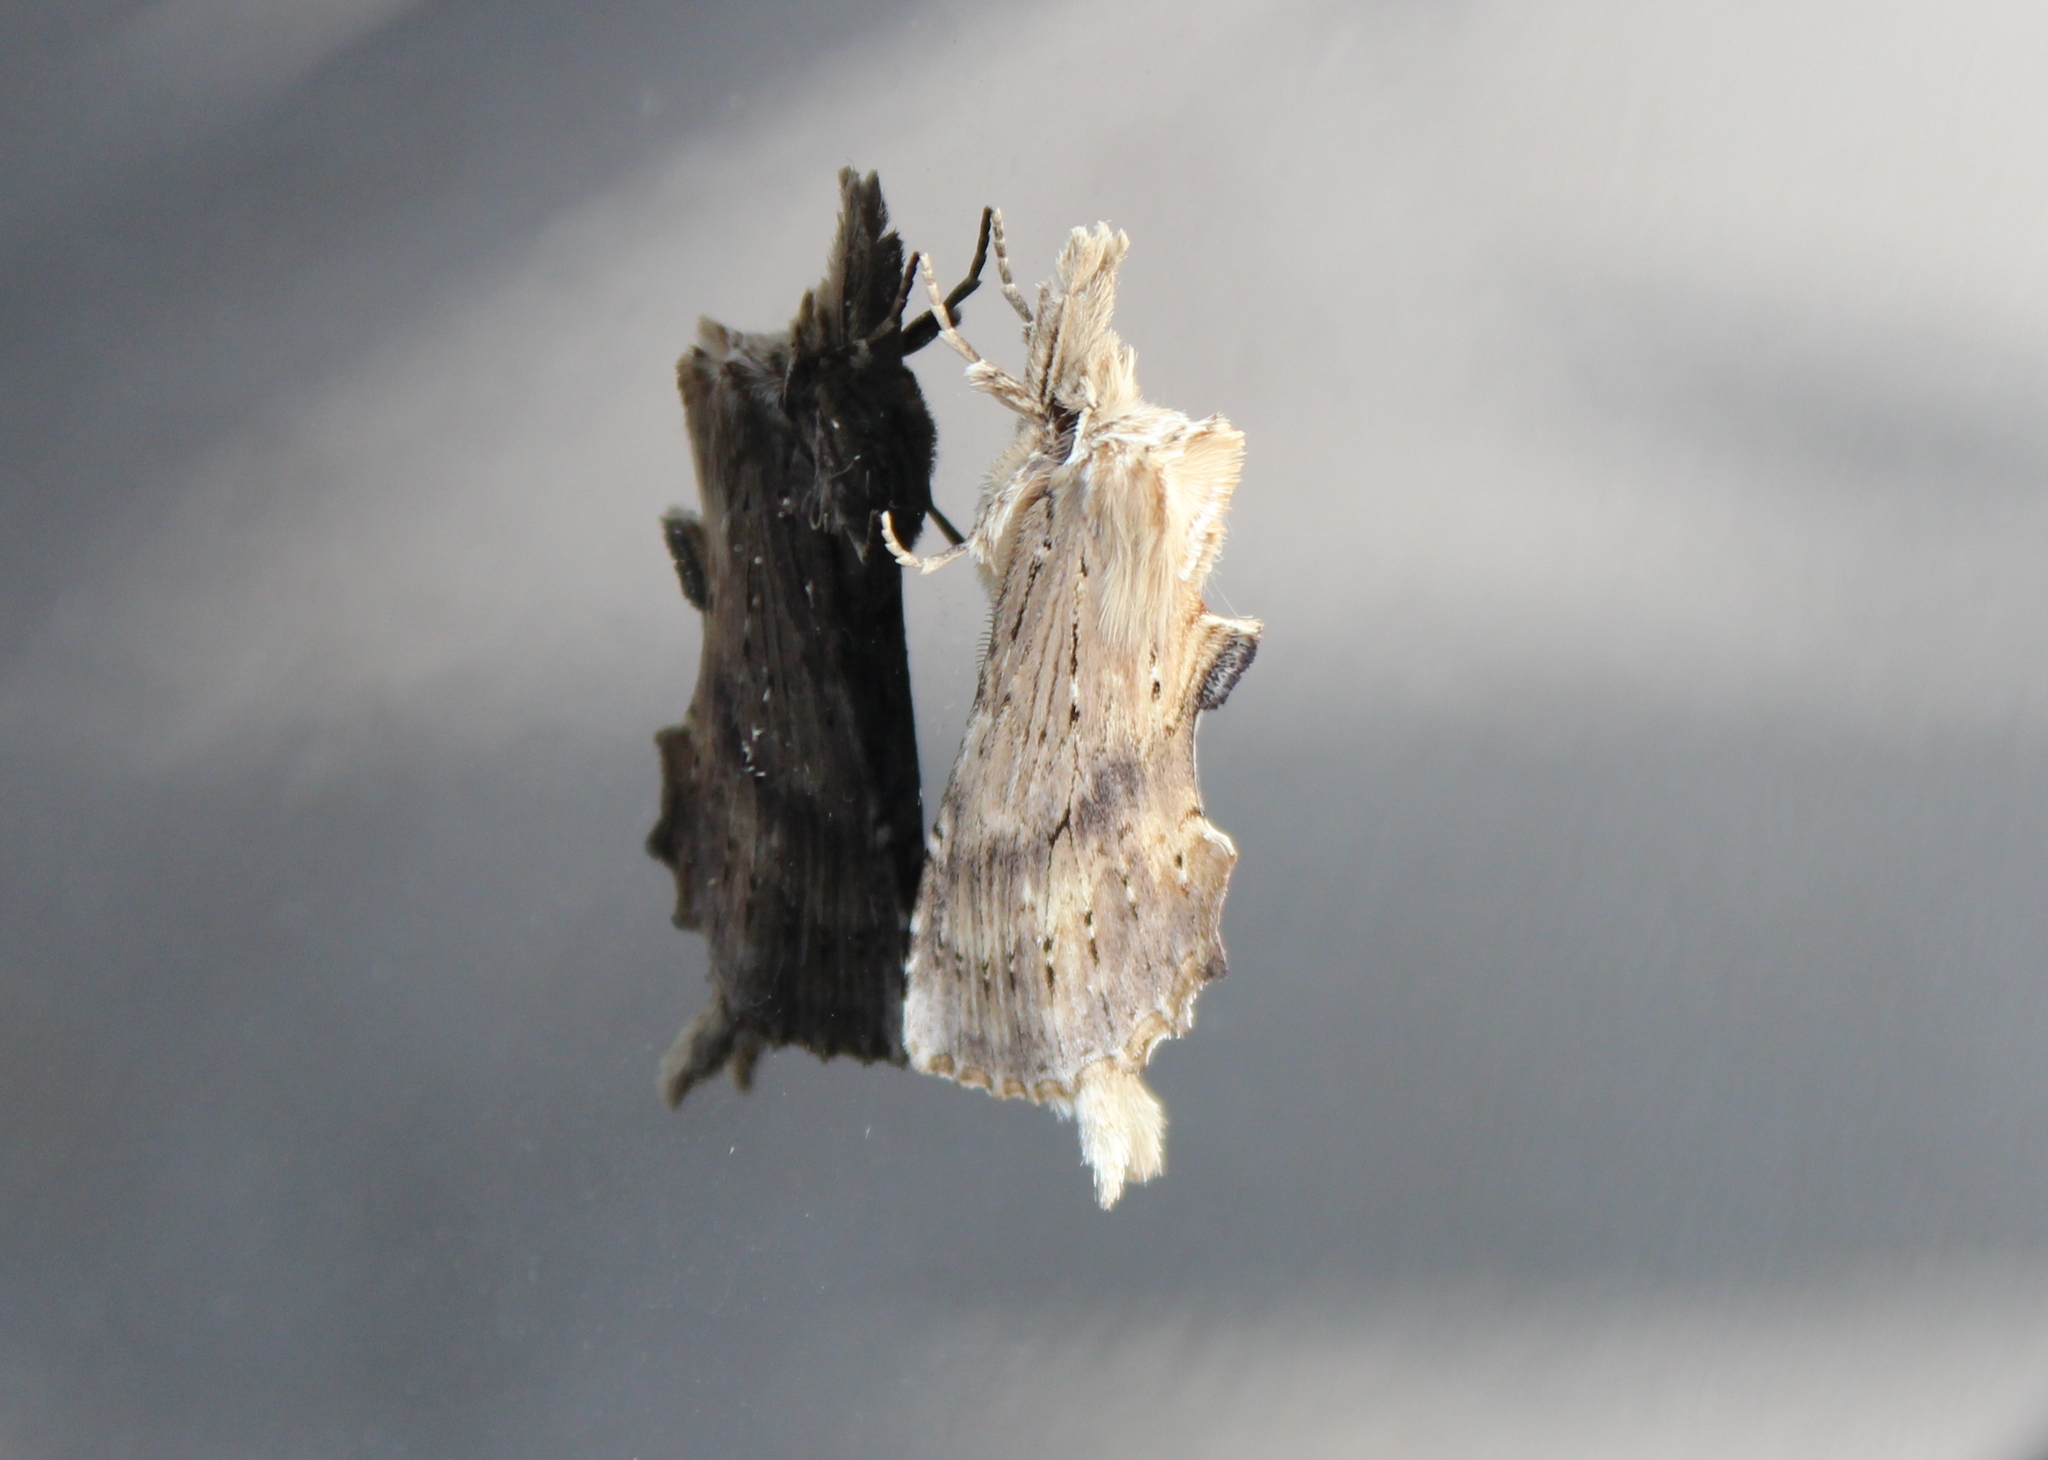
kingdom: Animalia
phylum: Arthropoda
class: Insecta
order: Lepidoptera
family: Notodontidae
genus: Pterostoma
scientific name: Pterostoma palpina
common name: Pale prominent
